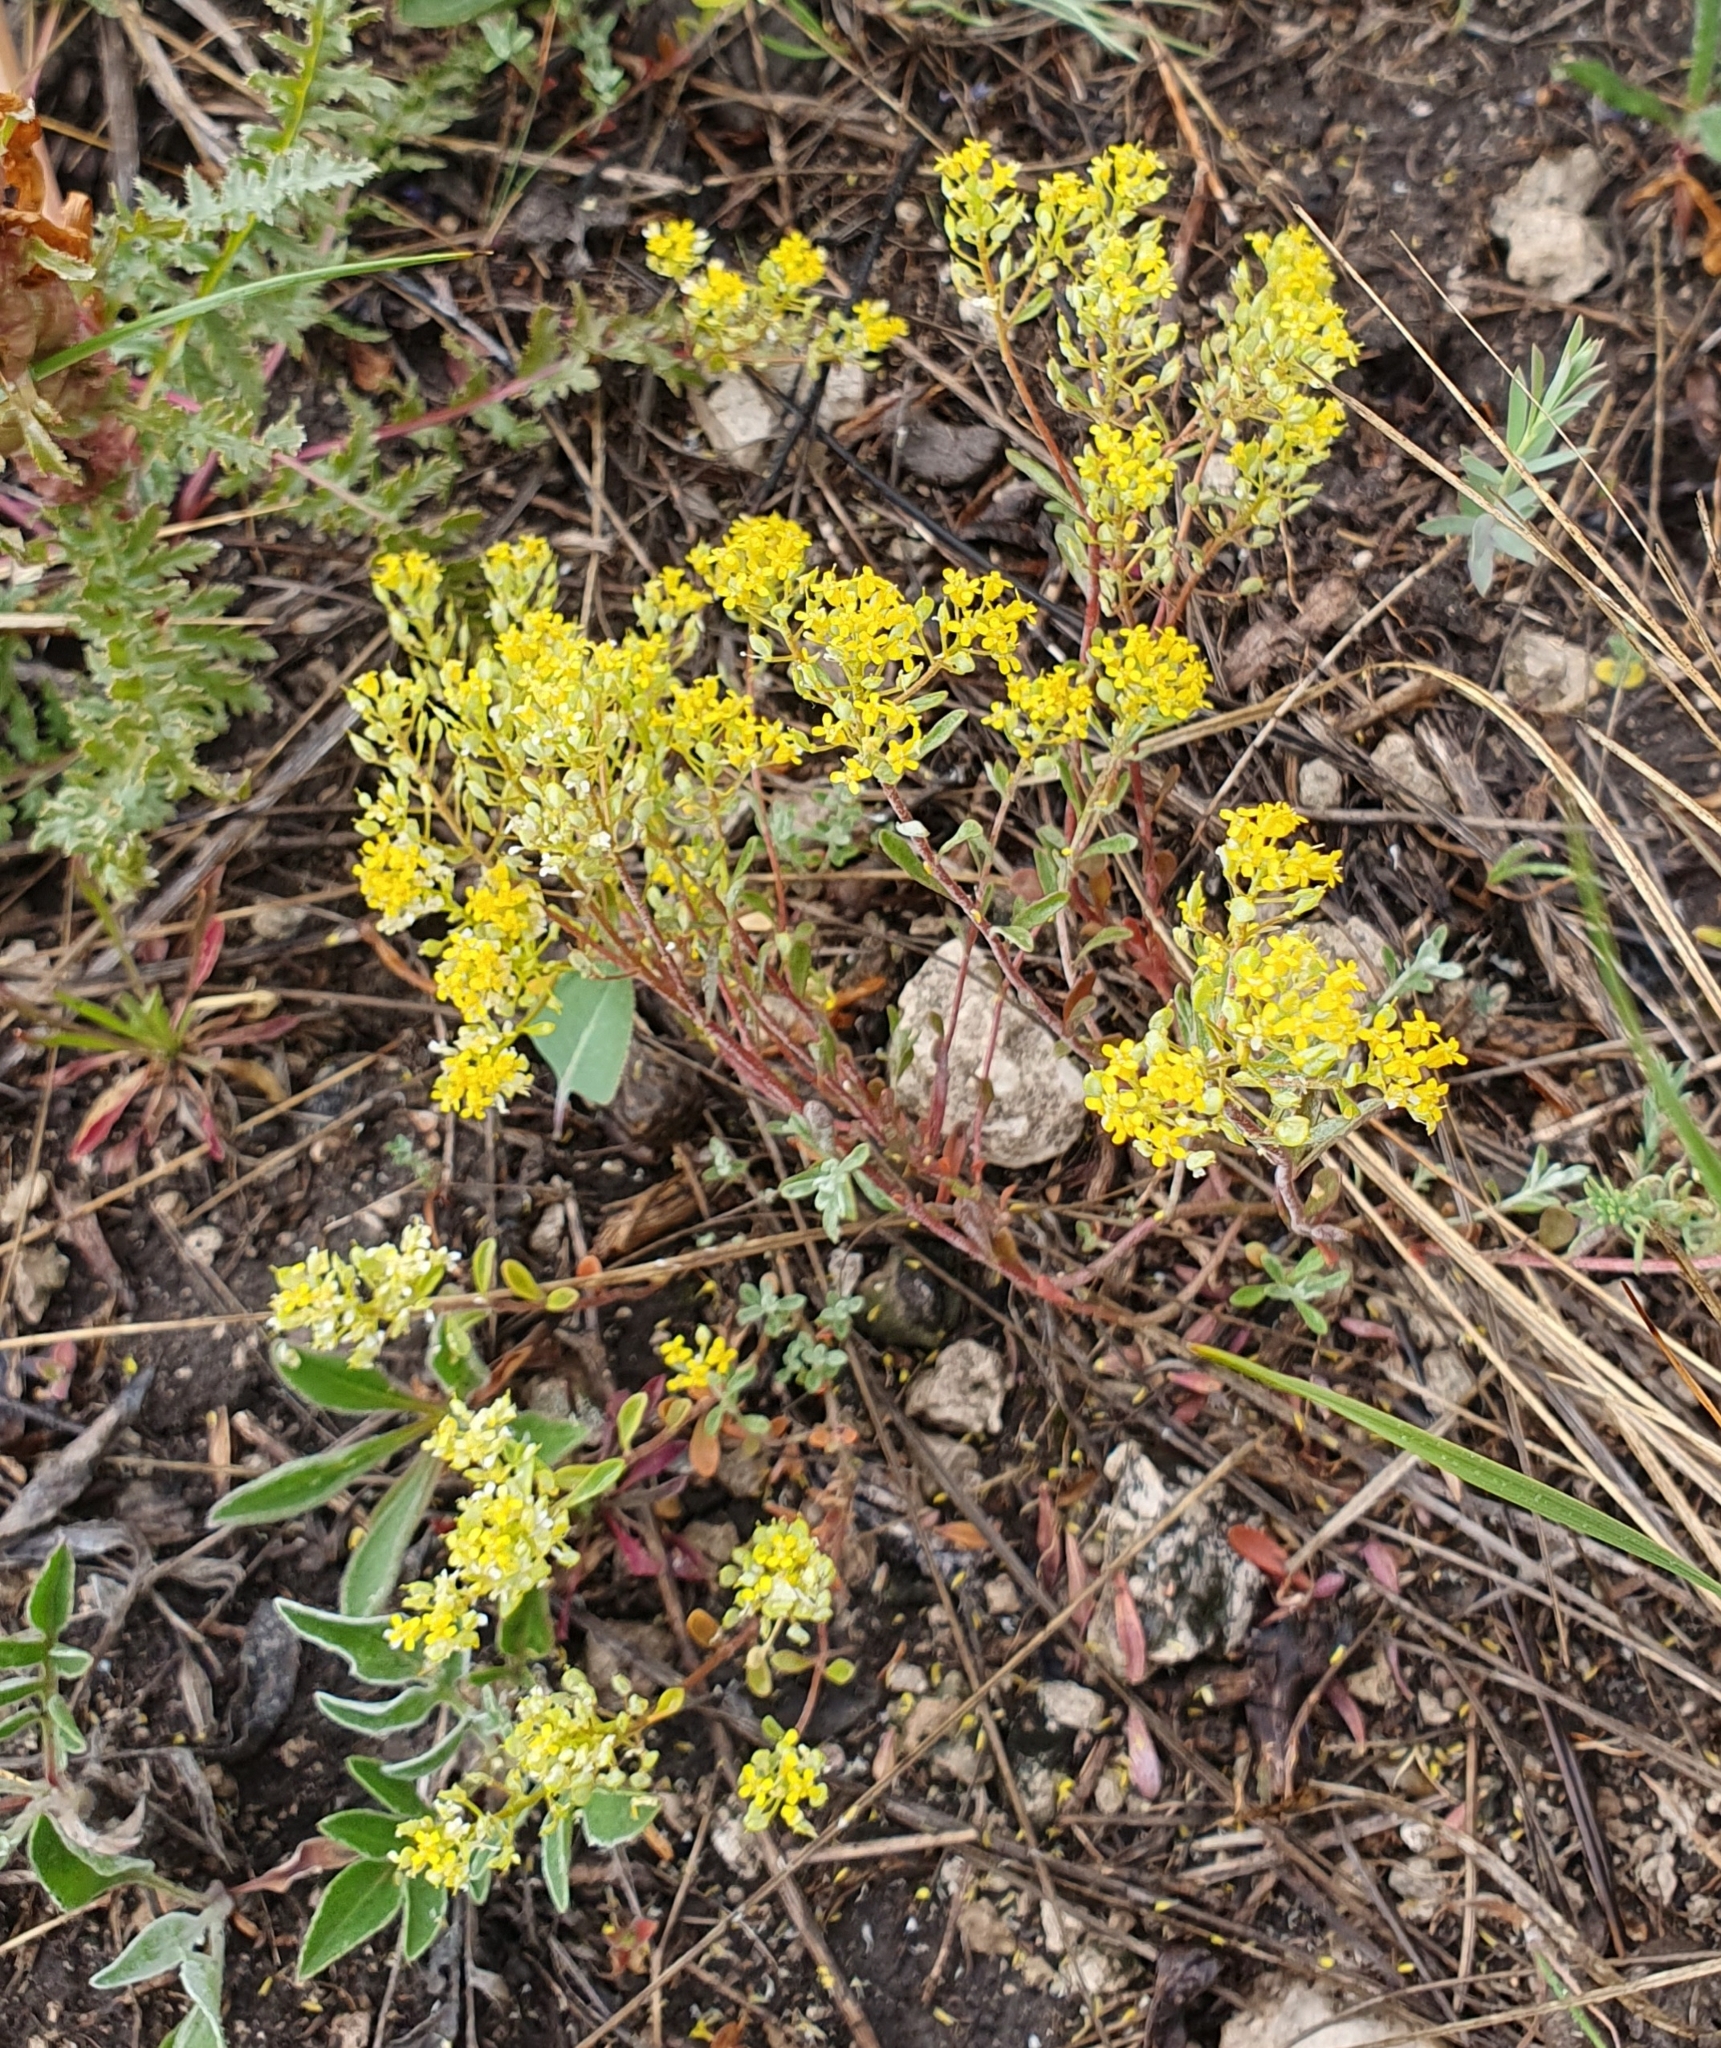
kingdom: Plantae
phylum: Tracheophyta
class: Magnoliopsida
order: Brassicales
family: Brassicaceae
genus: Odontarrhena
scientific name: Odontarrhena tortuosa
